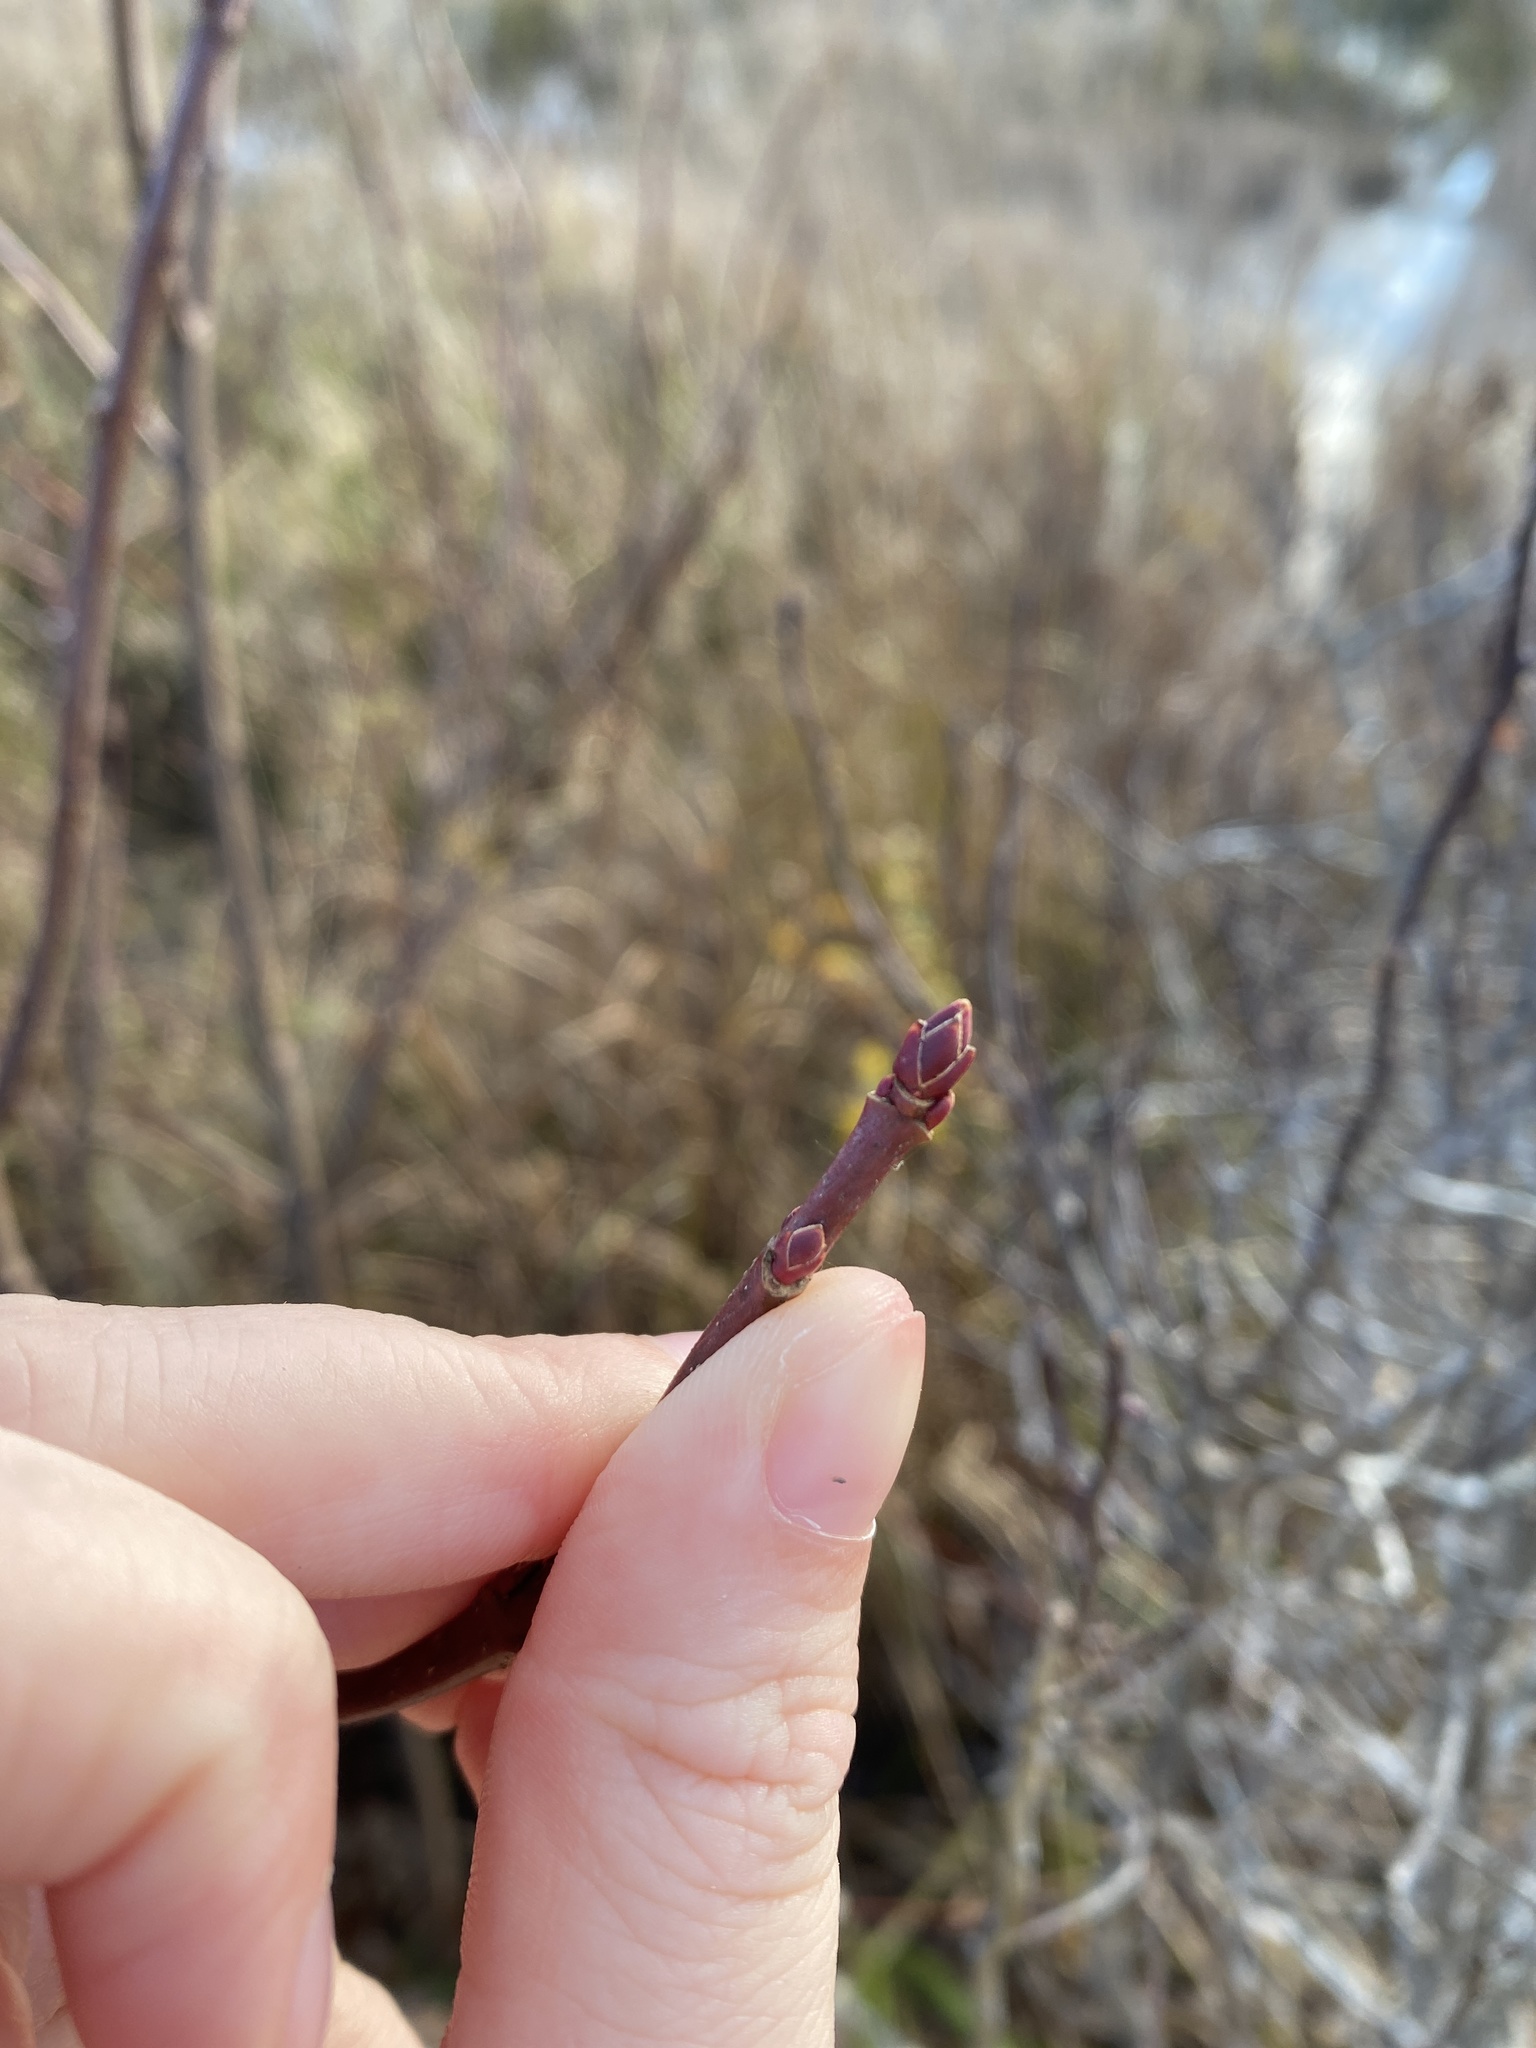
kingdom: Plantae
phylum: Tracheophyta
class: Magnoliopsida
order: Sapindales
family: Sapindaceae
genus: Acer
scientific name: Acer rubrum
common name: Red maple
